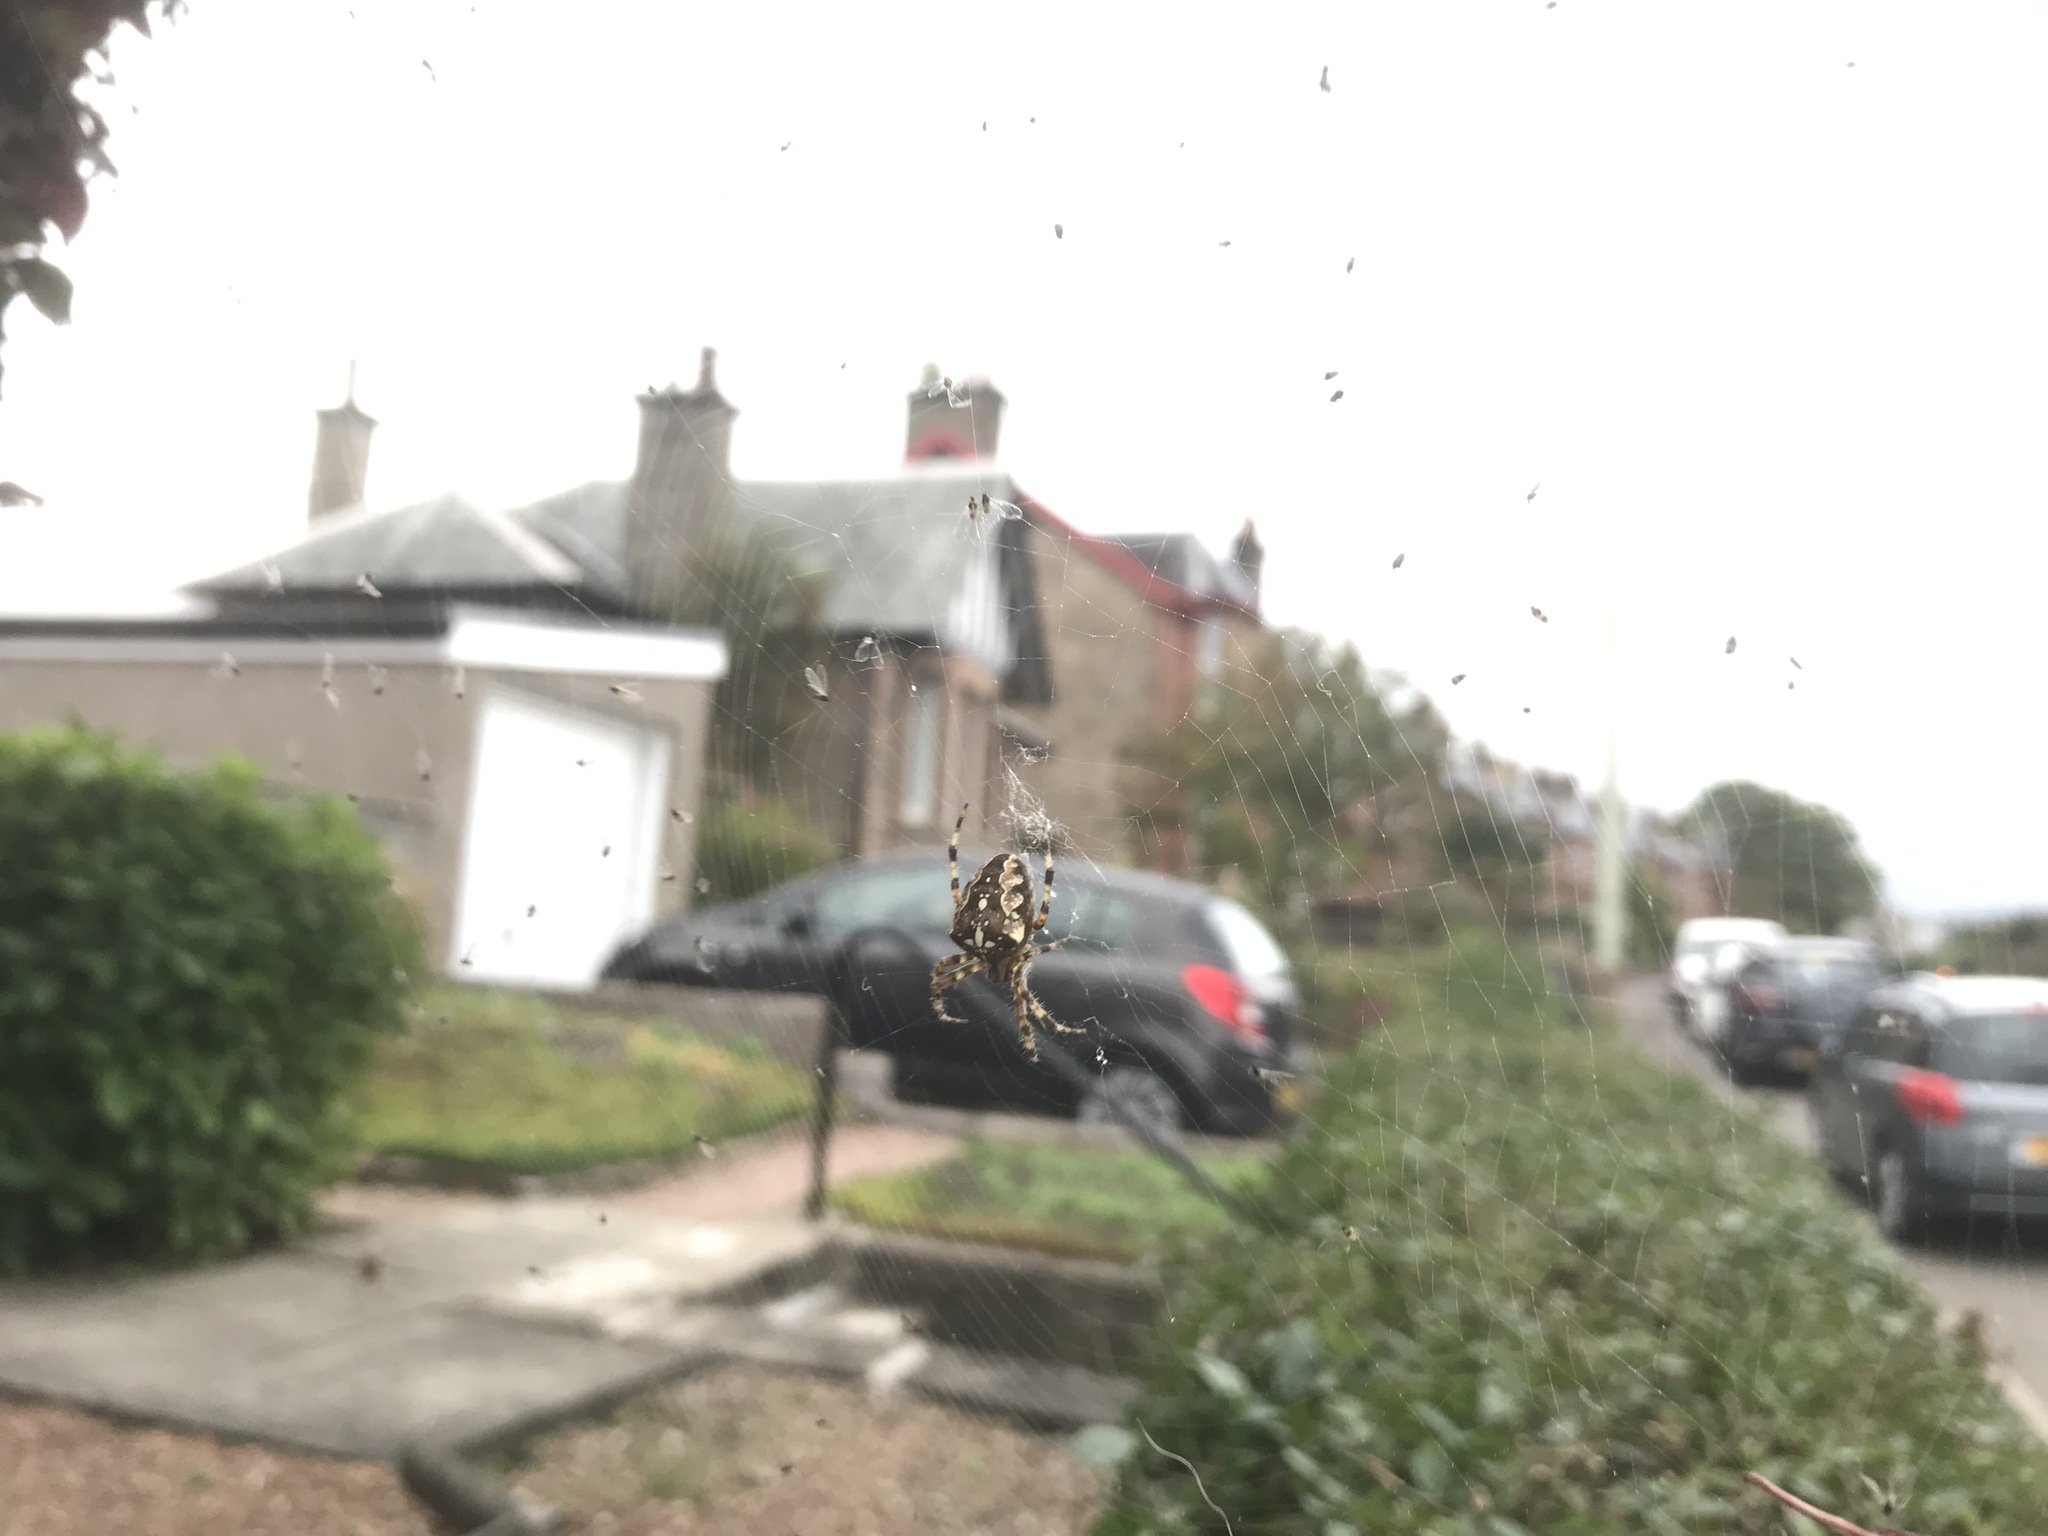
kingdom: Animalia
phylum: Arthropoda
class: Arachnida
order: Araneae
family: Araneidae
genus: Araneus
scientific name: Araneus diadematus
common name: Cross orbweaver
